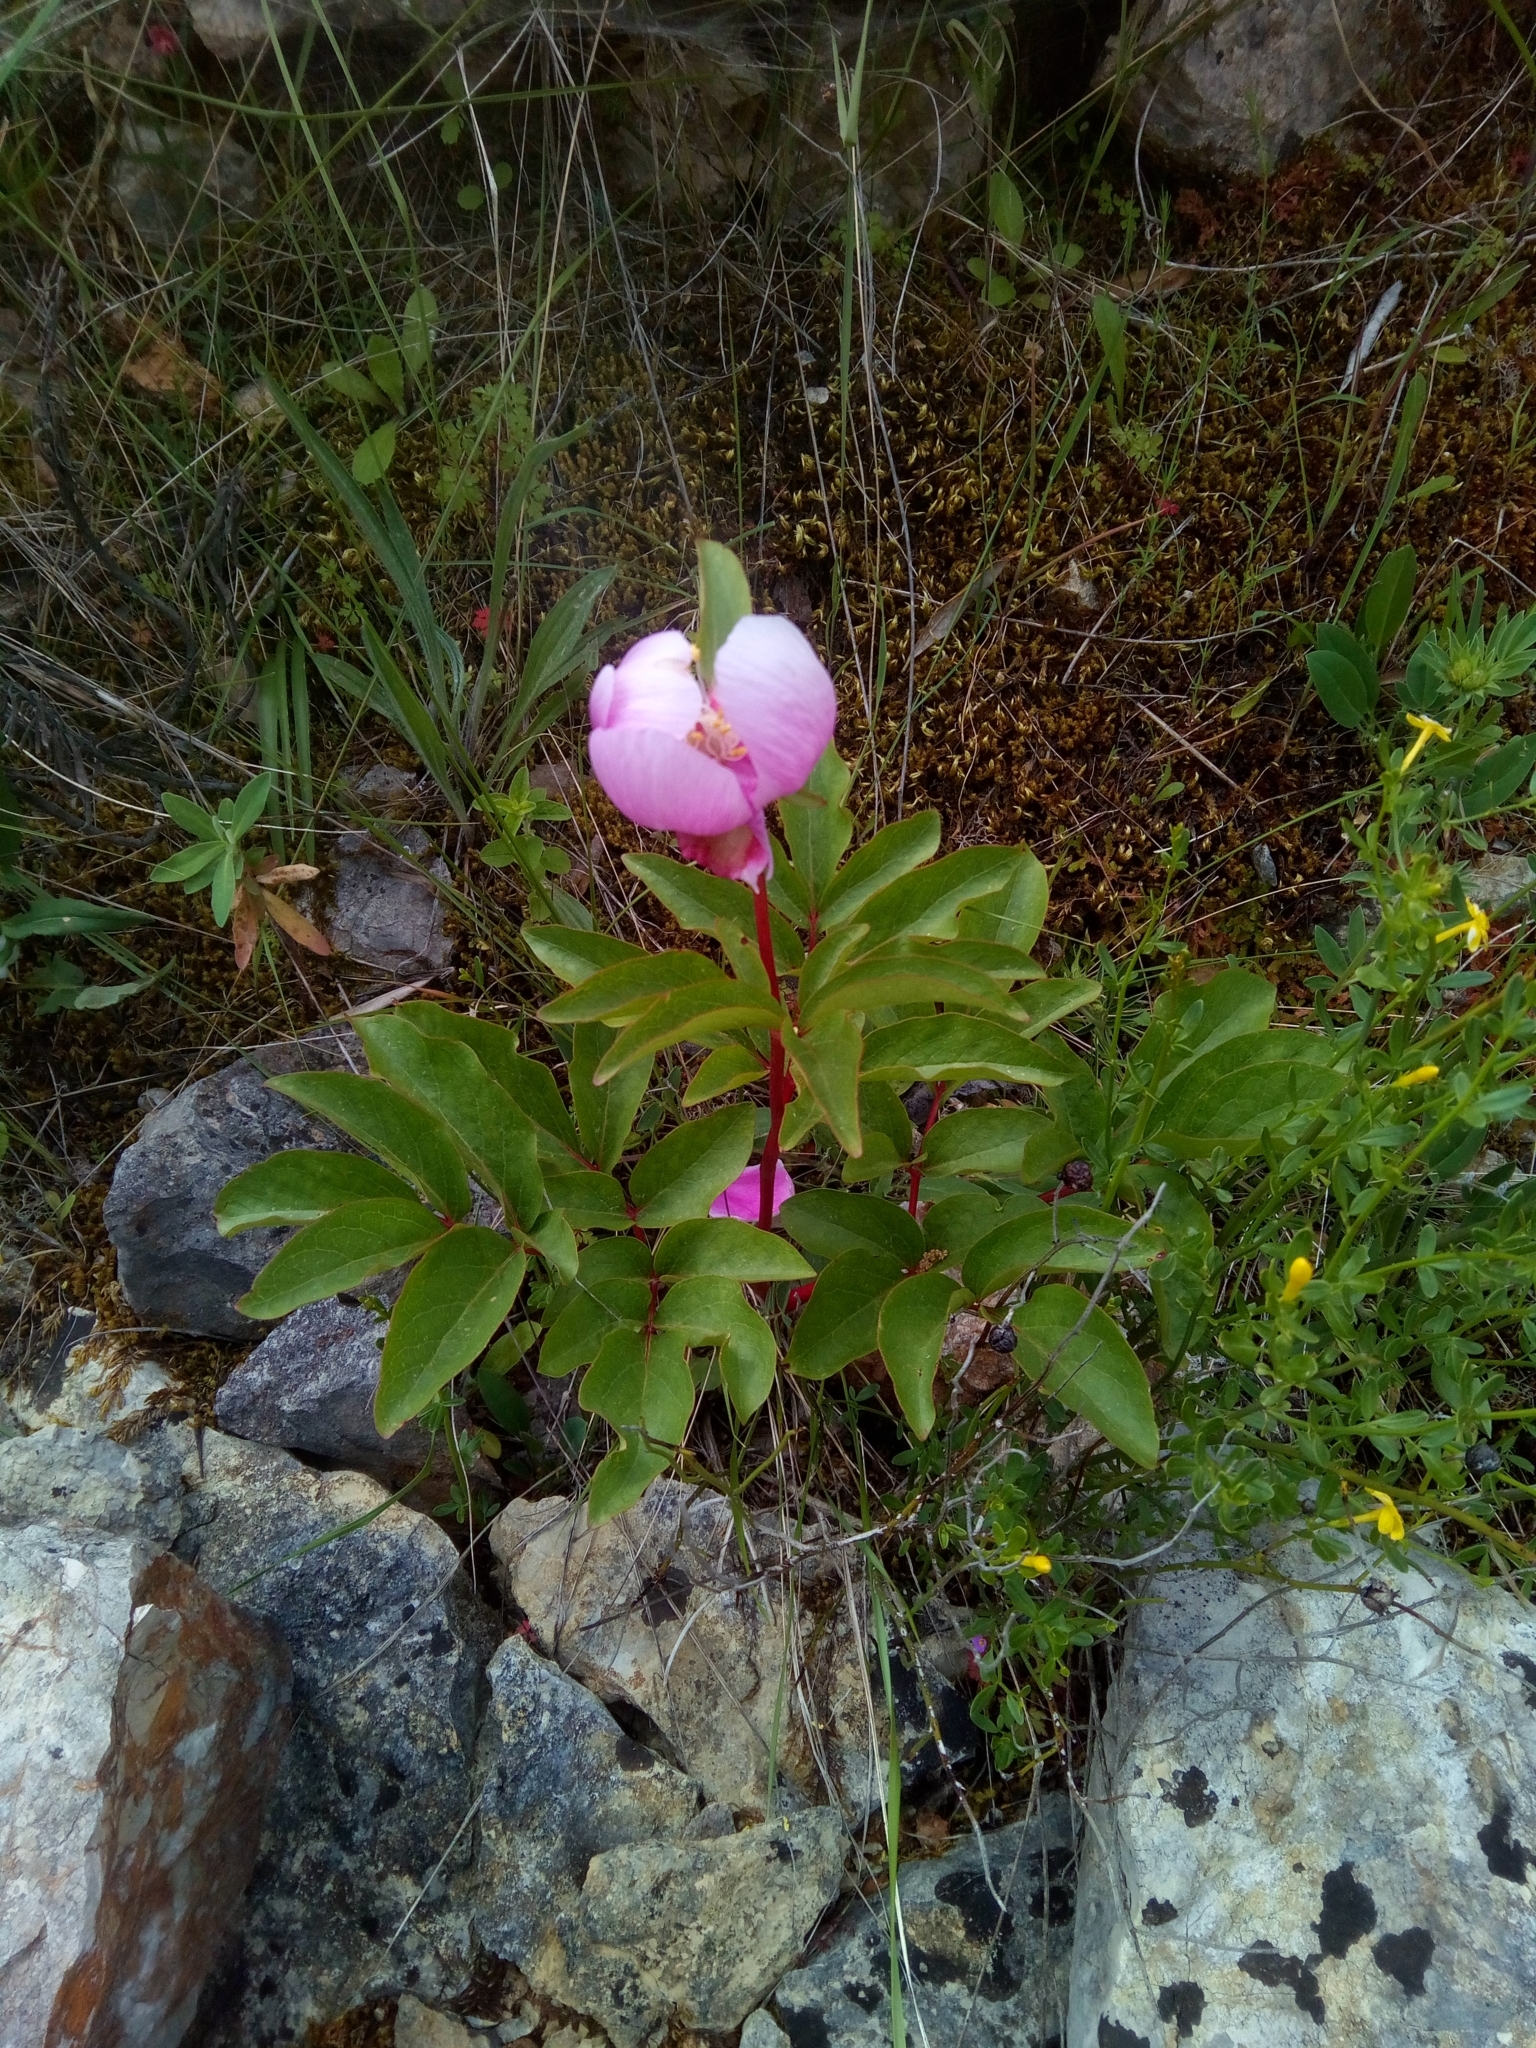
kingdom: Plantae
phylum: Tracheophyta
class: Magnoliopsida
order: Saxifragales
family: Paeoniaceae
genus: Paeonia
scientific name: Paeonia broteroi
